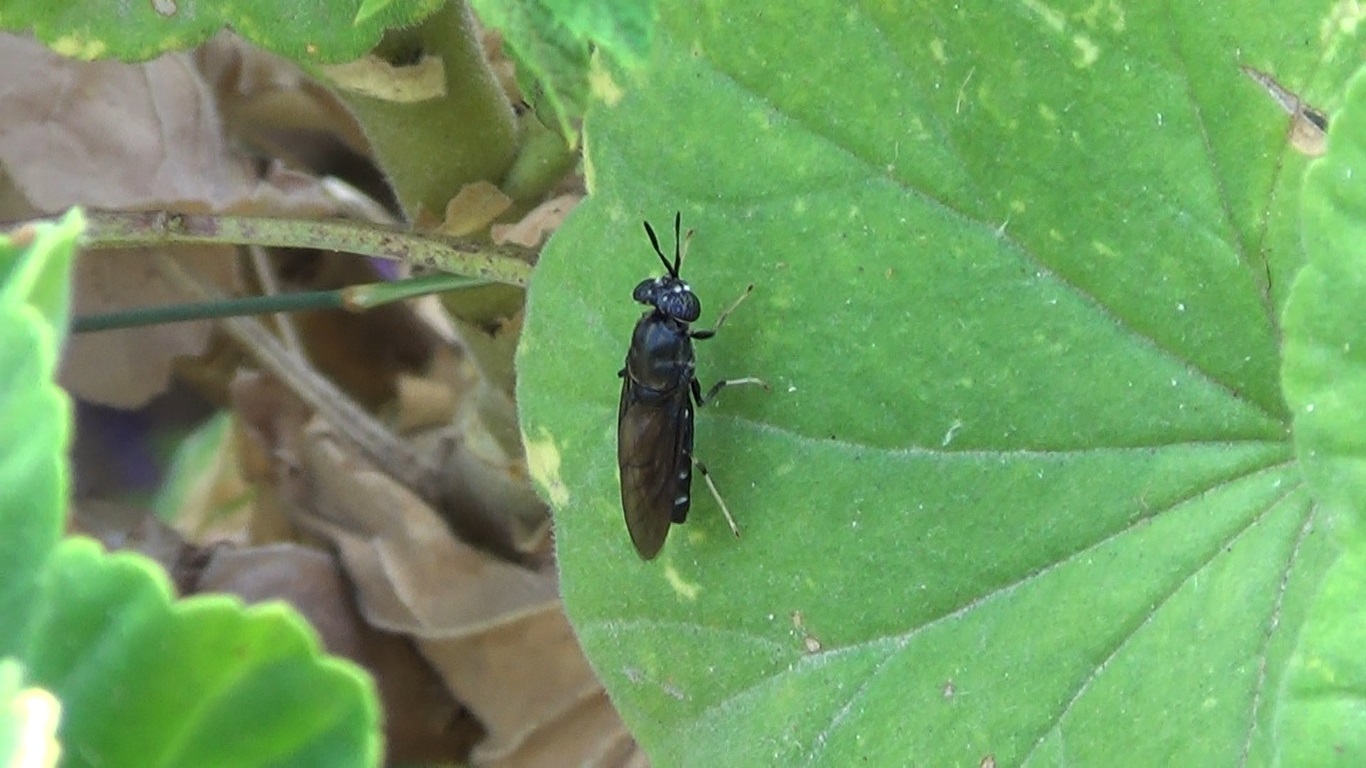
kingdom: Animalia
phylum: Arthropoda
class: Insecta
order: Diptera
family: Stratiomyidae
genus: Hermetia
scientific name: Hermetia illucens
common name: Black soldier fly
